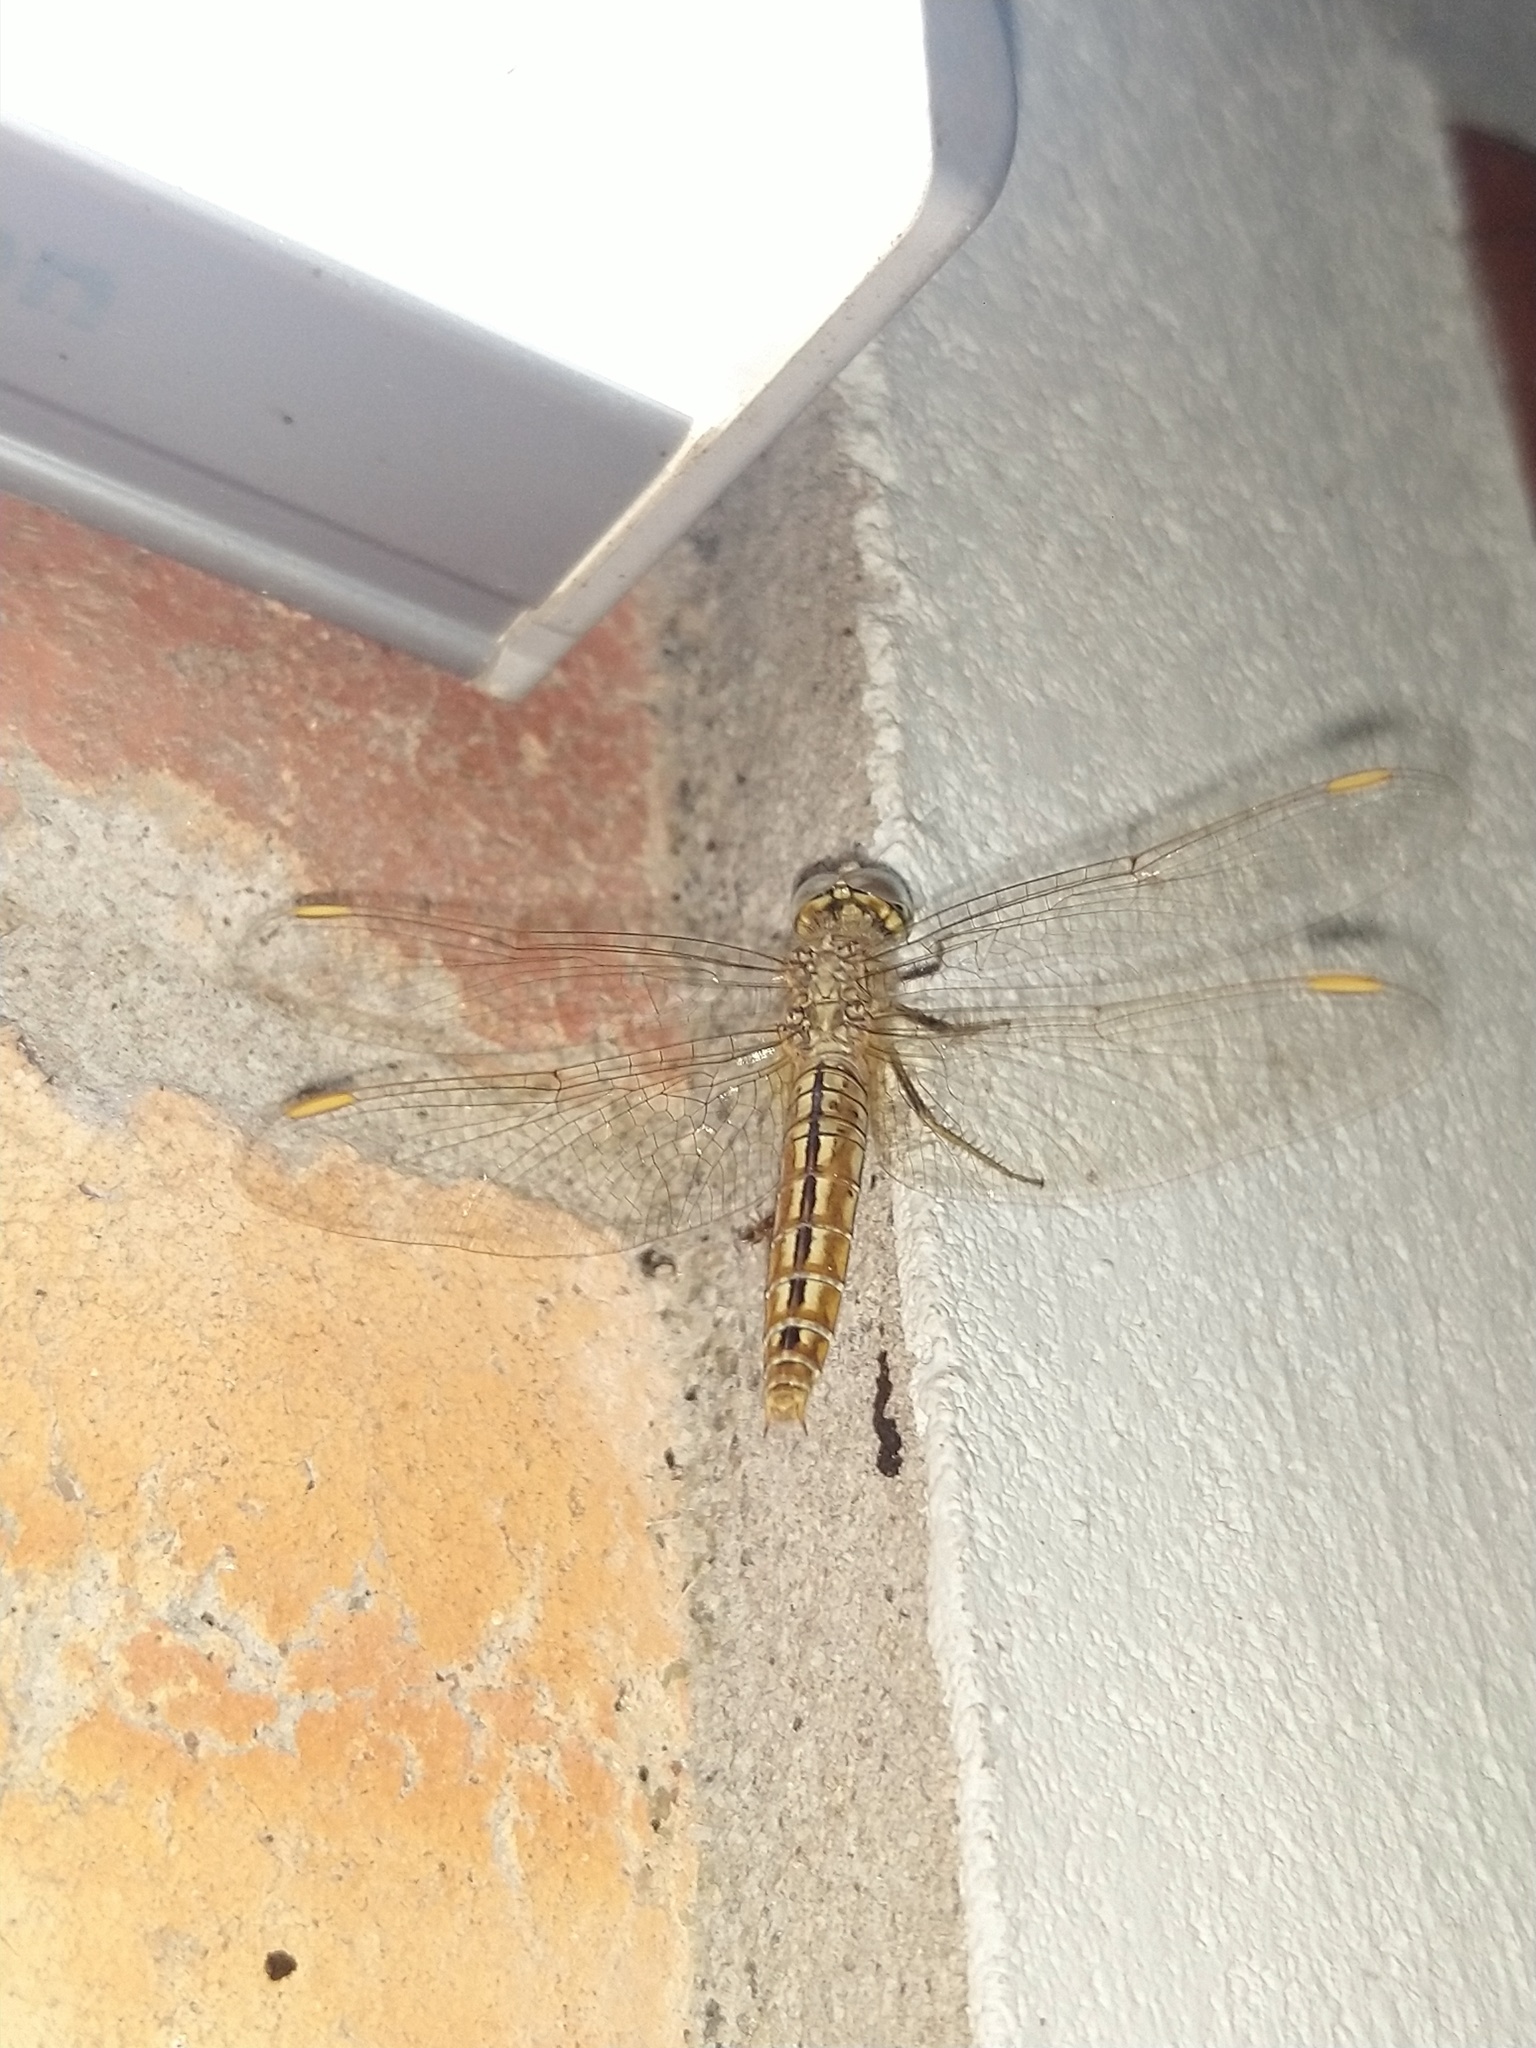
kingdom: Animalia
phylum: Arthropoda
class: Insecta
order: Odonata
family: Libellulidae
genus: Brachythemis
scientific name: Brachythemis contaminata
